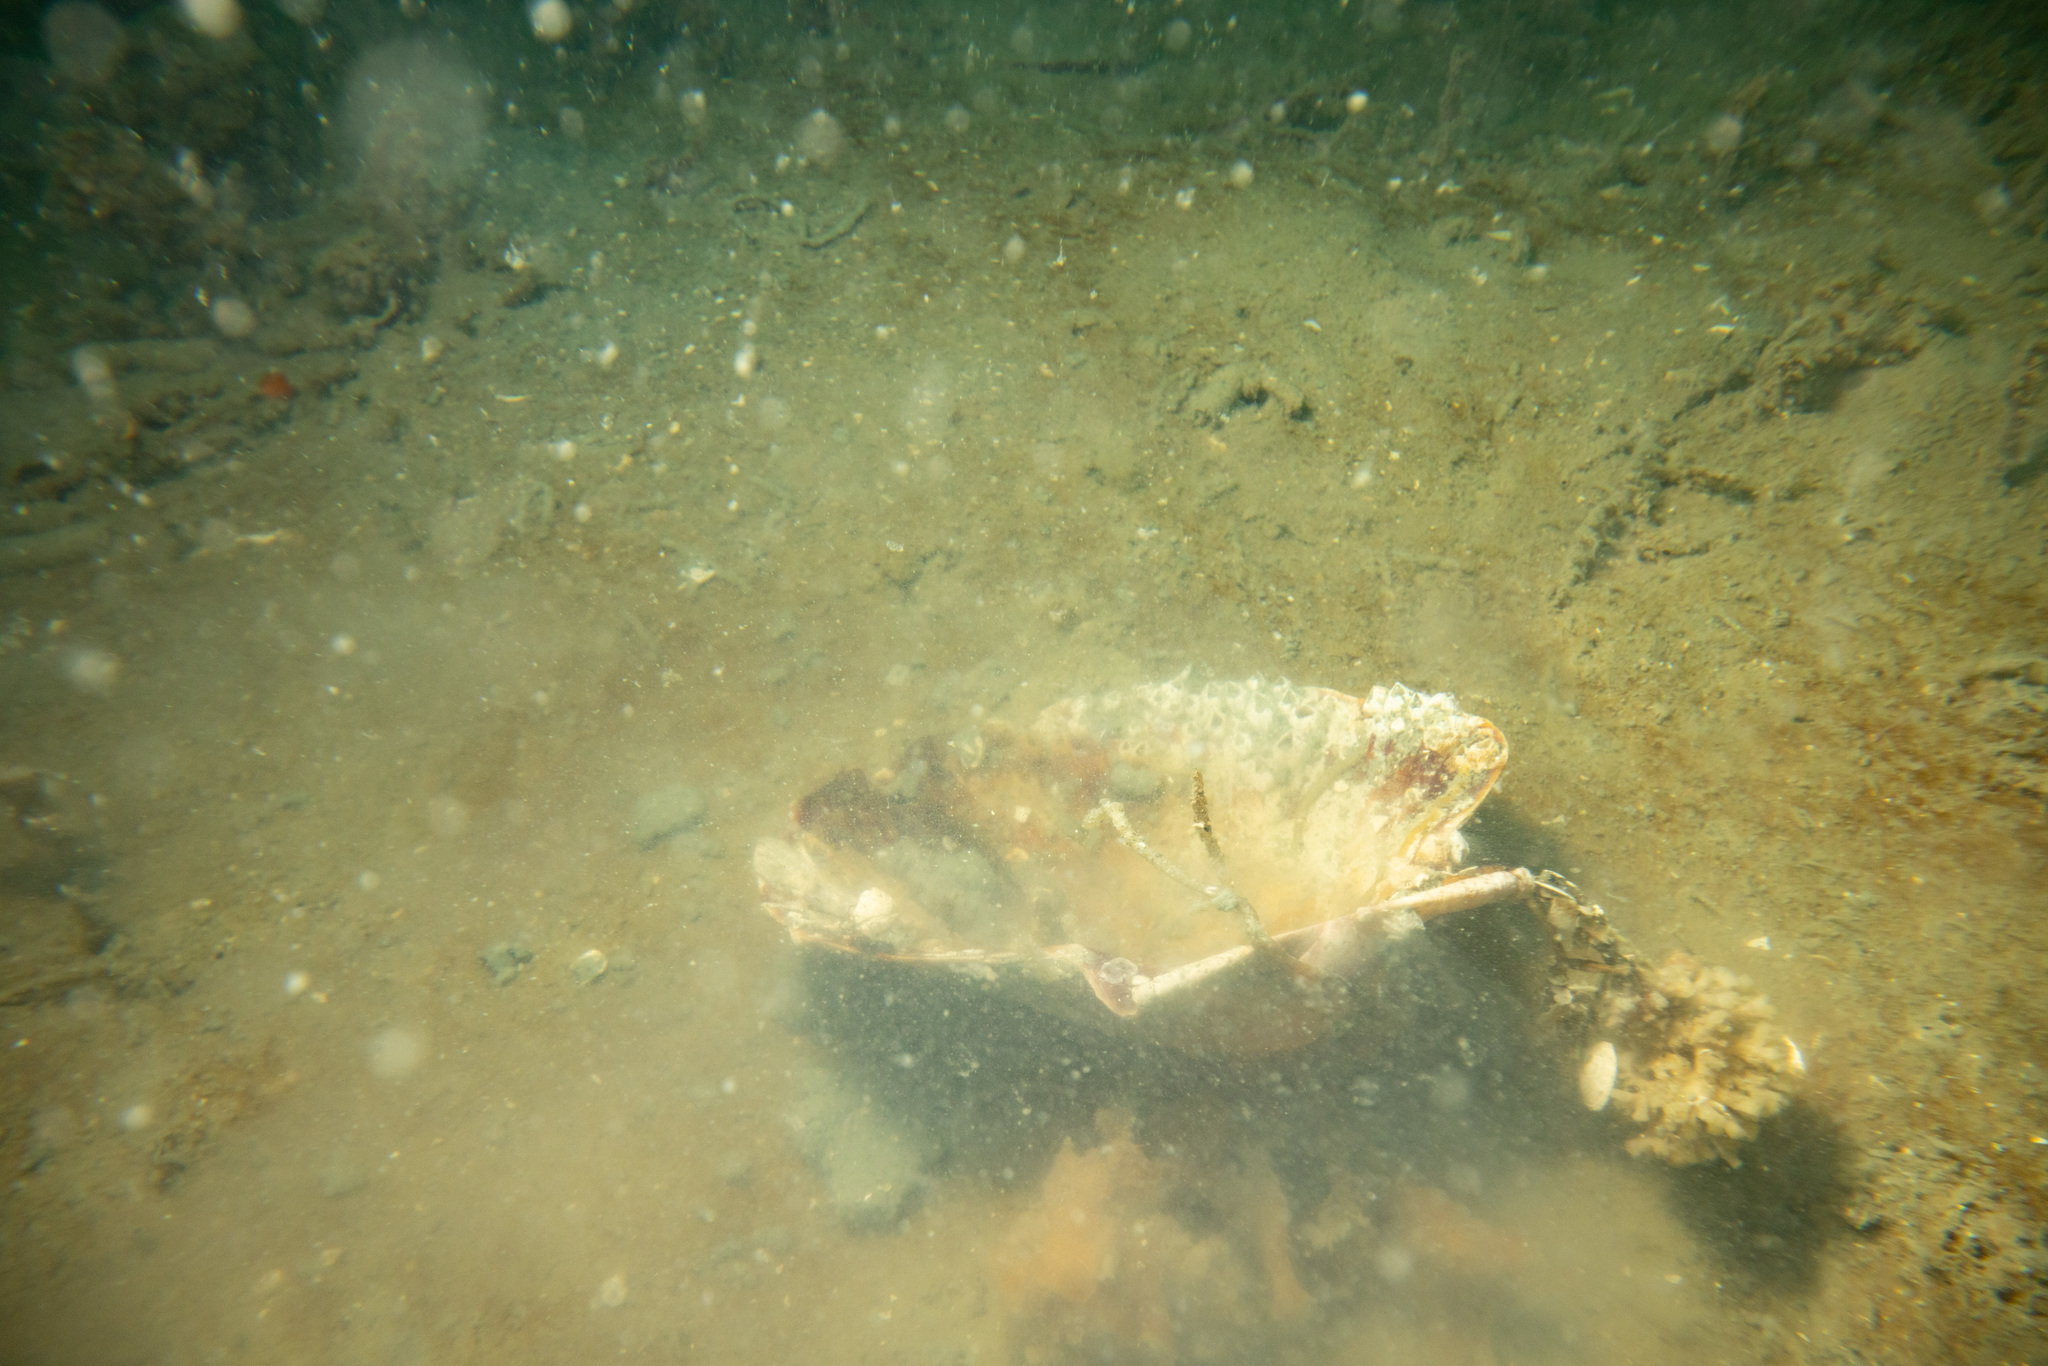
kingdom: Animalia
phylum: Mollusca
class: Bivalvia
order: Pectinida
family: Pectinidae
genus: Pecten
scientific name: Pecten novaezelandiae
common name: New zealand scallop
